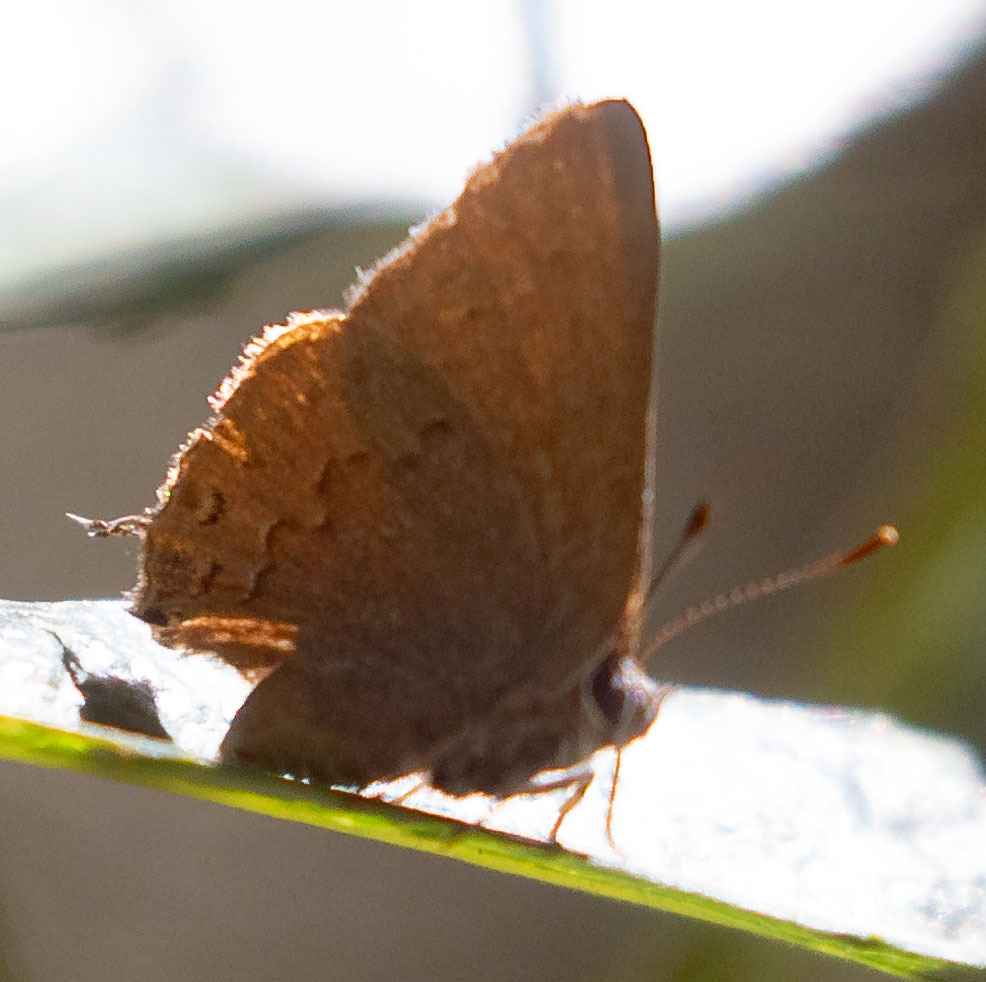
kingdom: Animalia
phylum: Arthropoda
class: Insecta
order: Lepidoptera
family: Lycaenidae
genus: Strymon
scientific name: Strymon saepium
